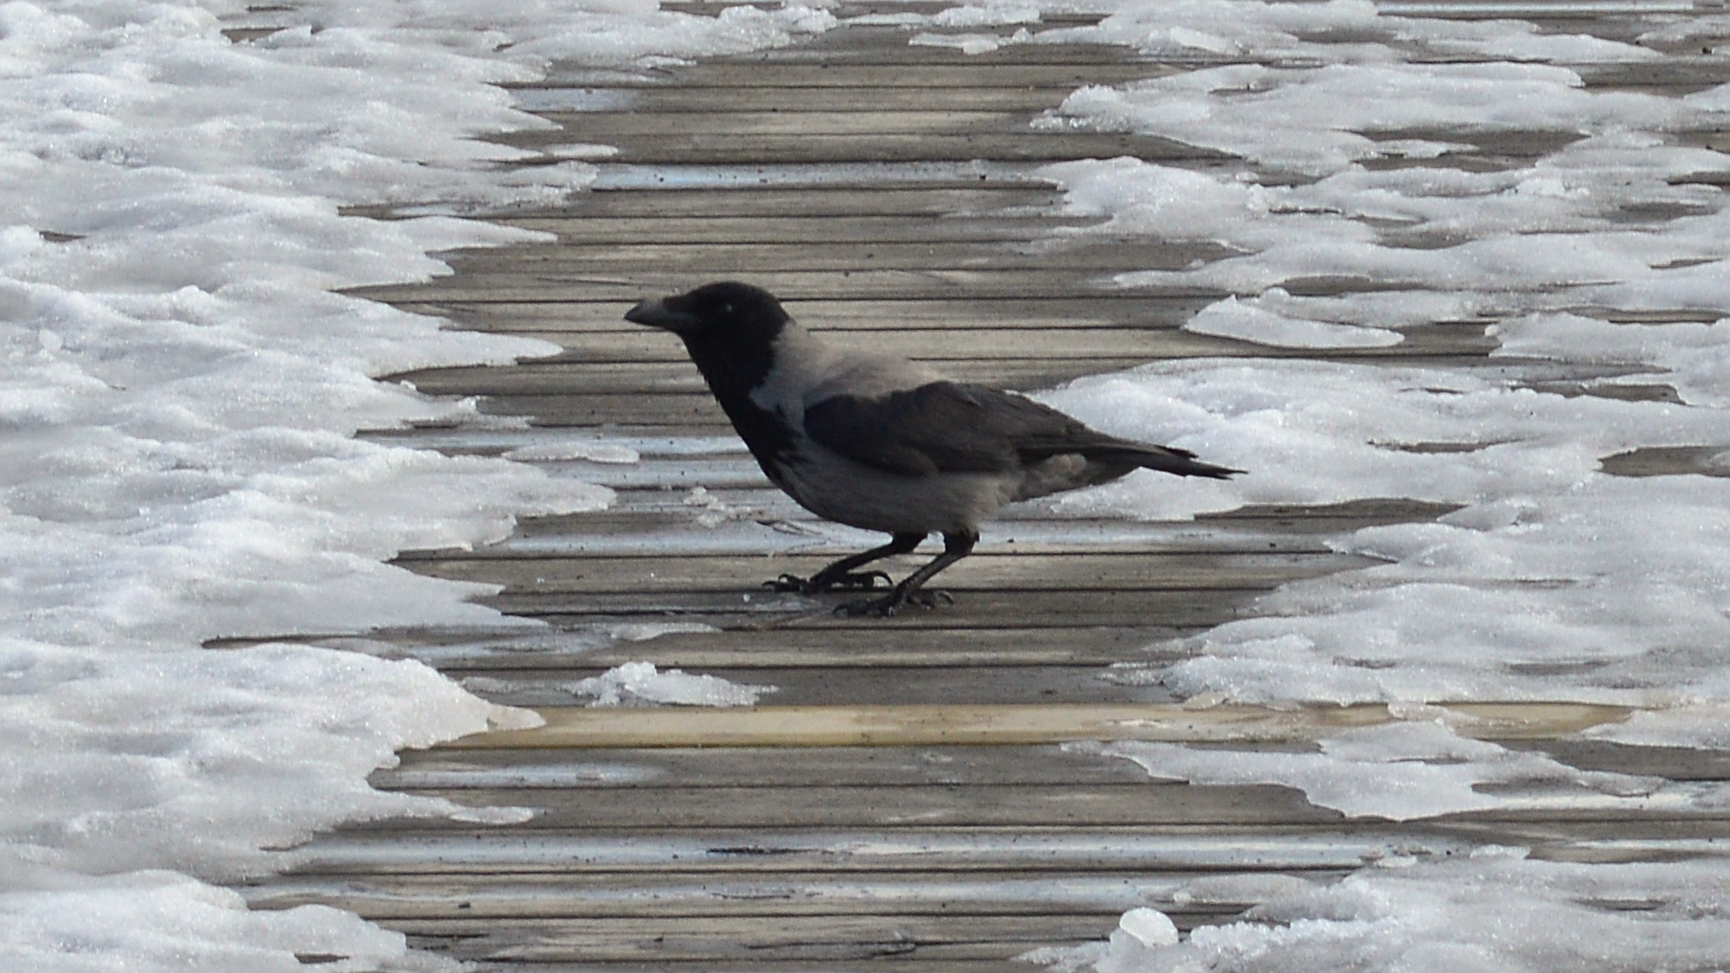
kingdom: Animalia
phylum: Chordata
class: Aves
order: Passeriformes
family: Corvidae
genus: Corvus
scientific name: Corvus cornix
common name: Hooded crow
